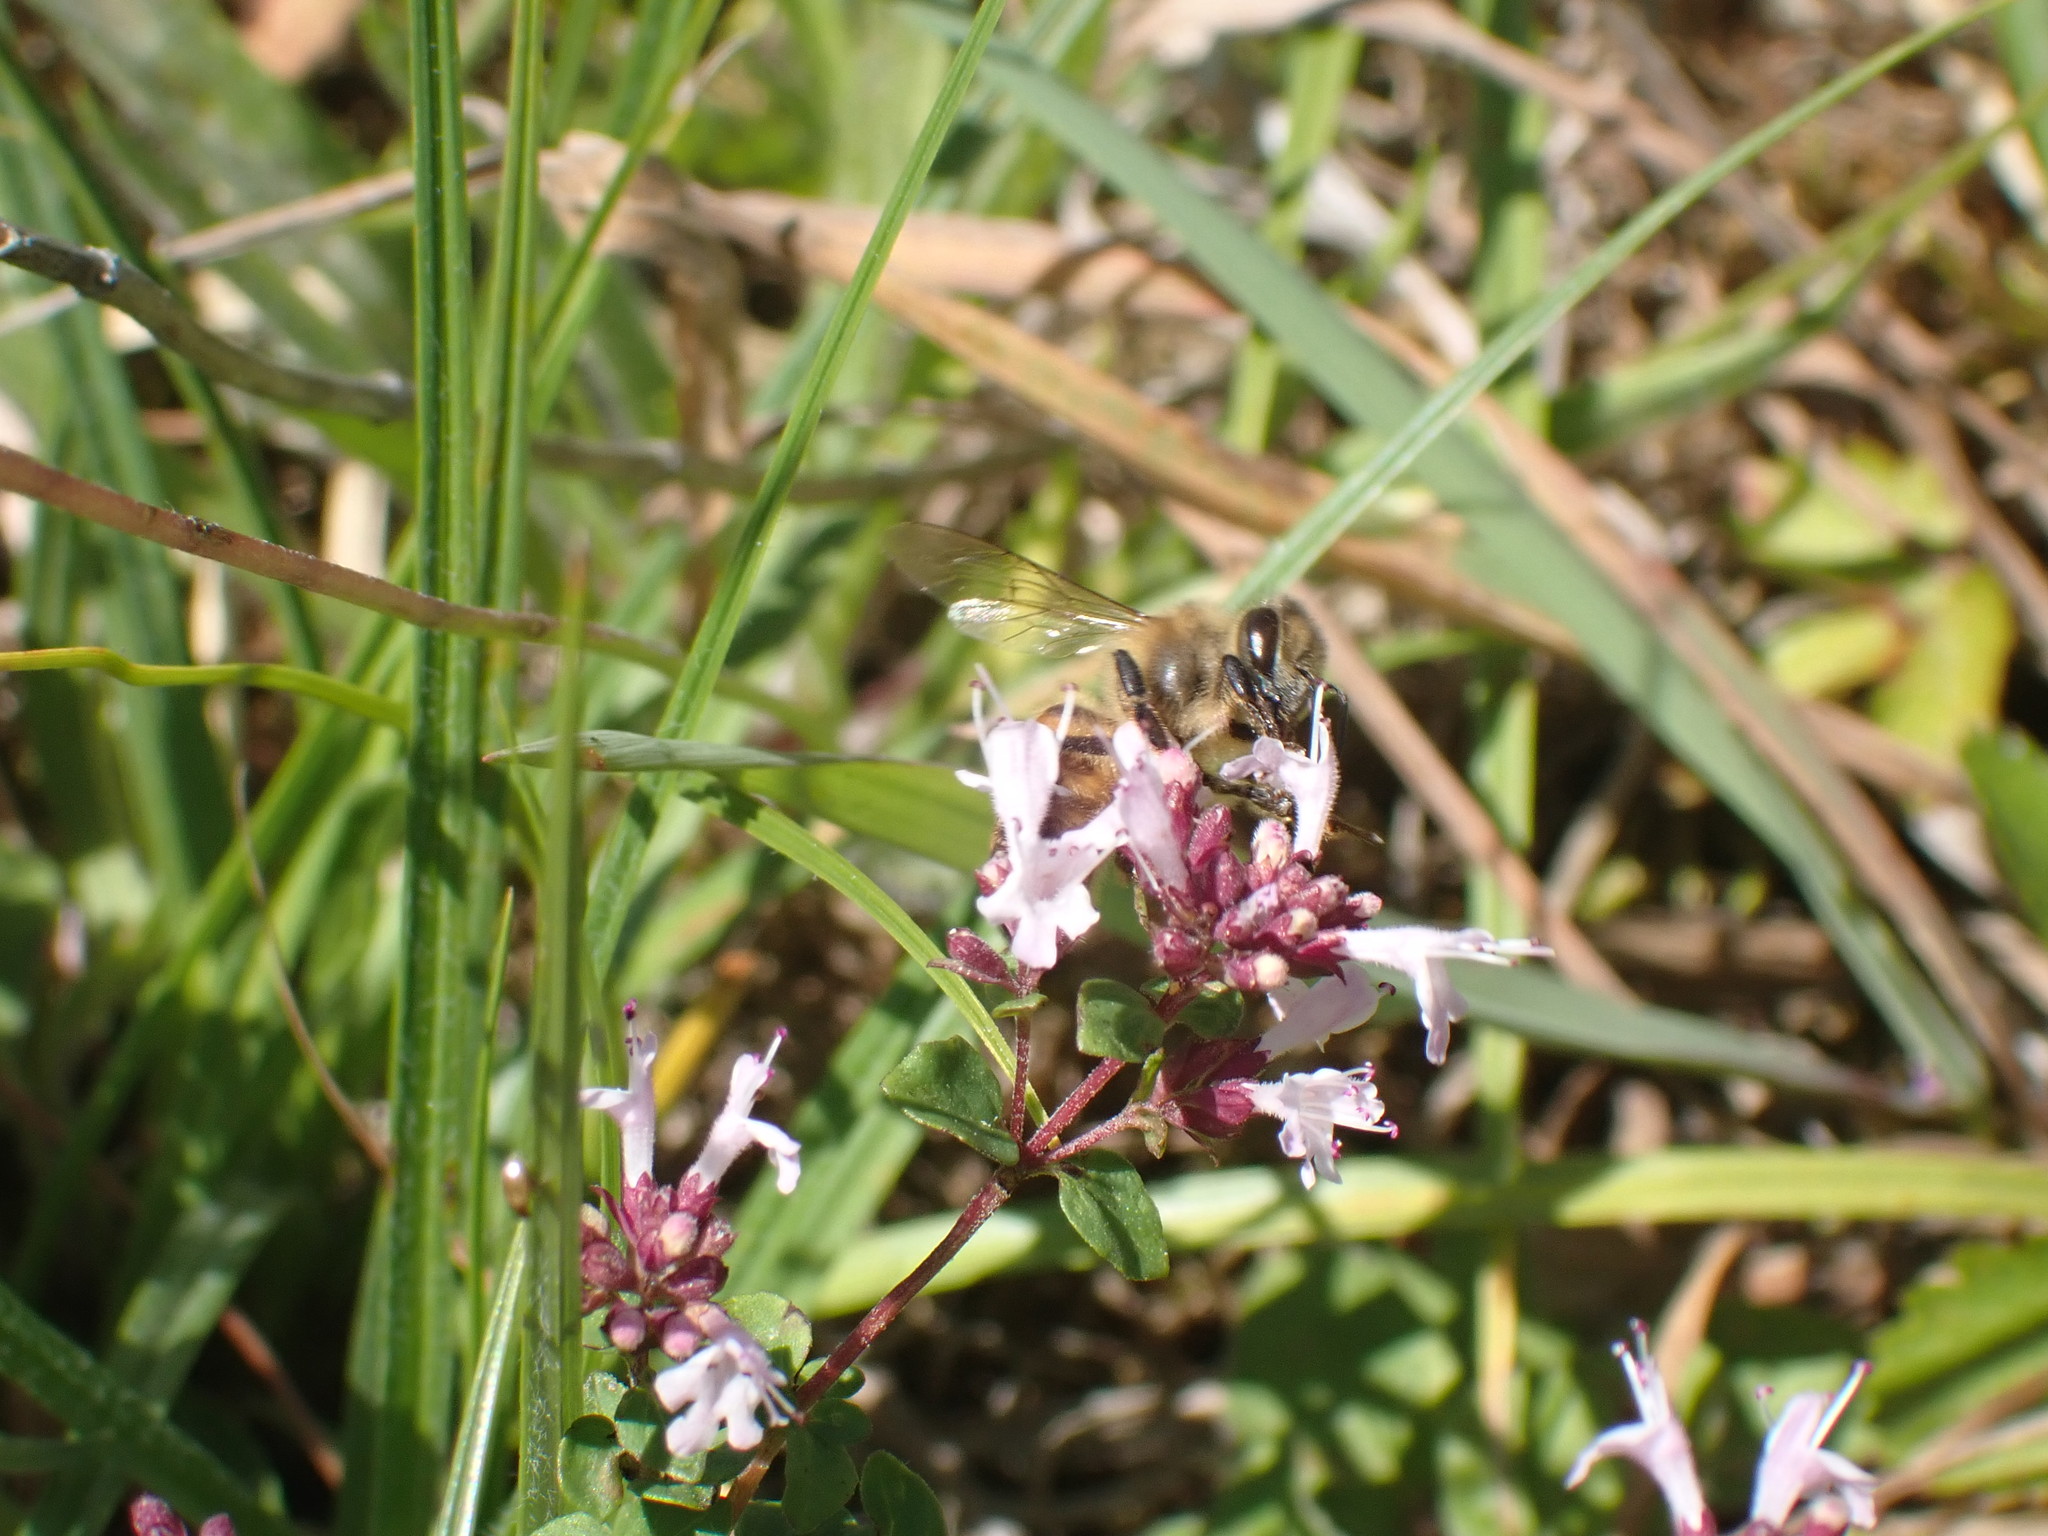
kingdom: Animalia
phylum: Arthropoda
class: Insecta
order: Hymenoptera
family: Apidae
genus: Apis
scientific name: Apis mellifera
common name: Honey bee
